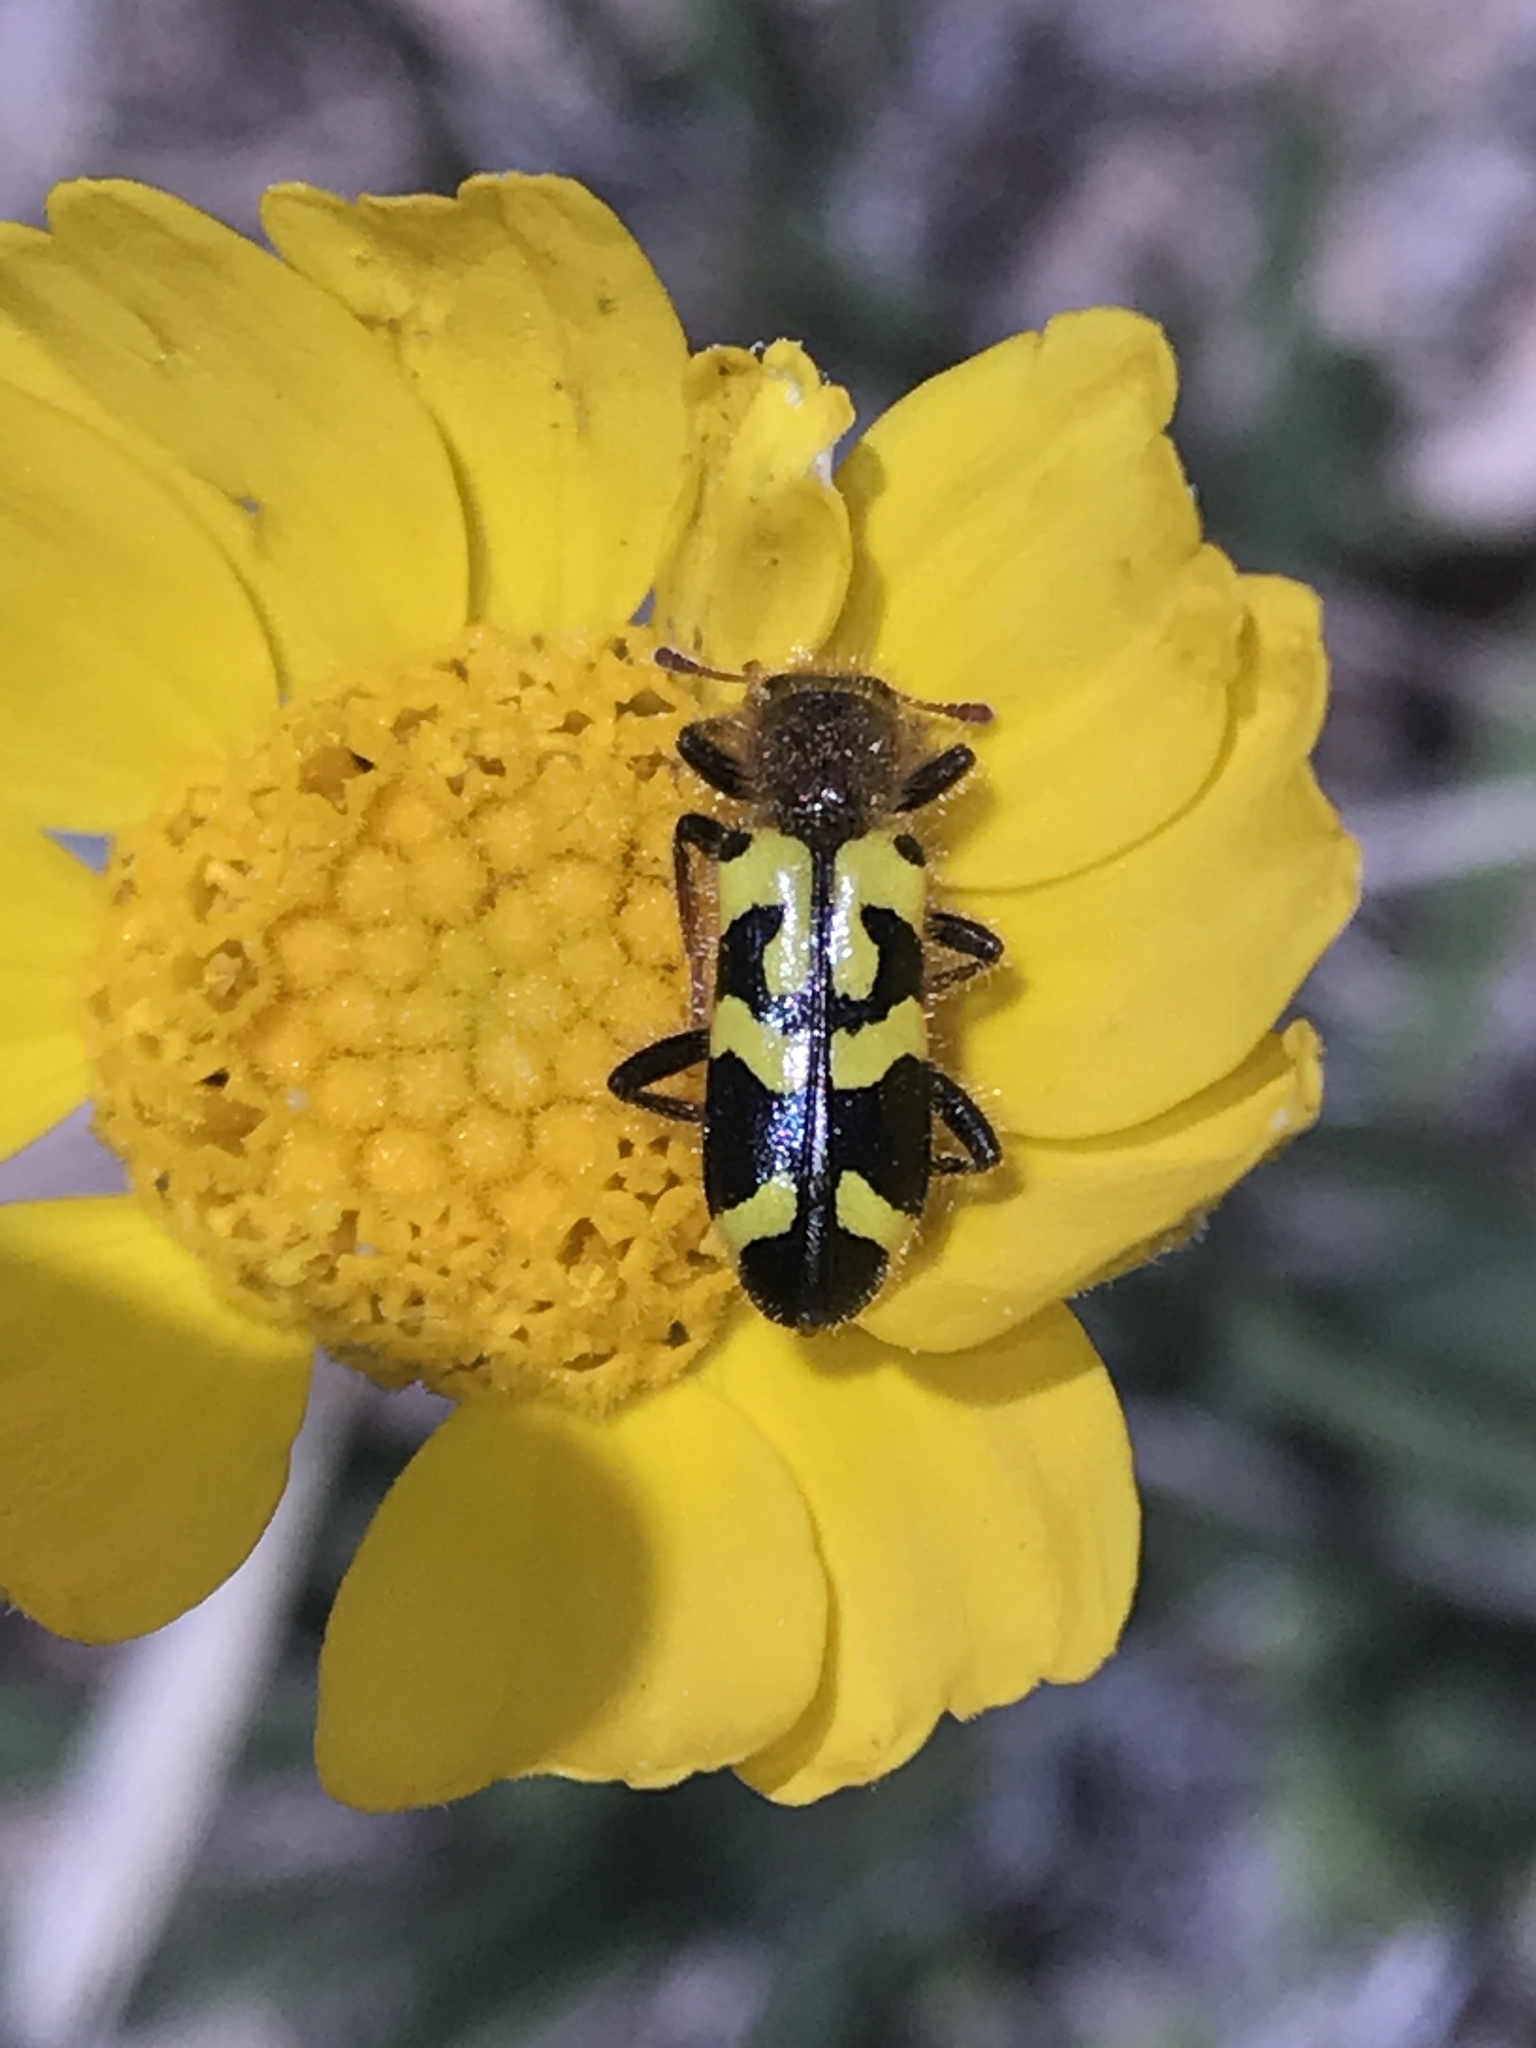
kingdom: Animalia
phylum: Arthropoda
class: Insecta
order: Coleoptera
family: Cleridae
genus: Trichodes
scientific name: Trichodes ornatus
